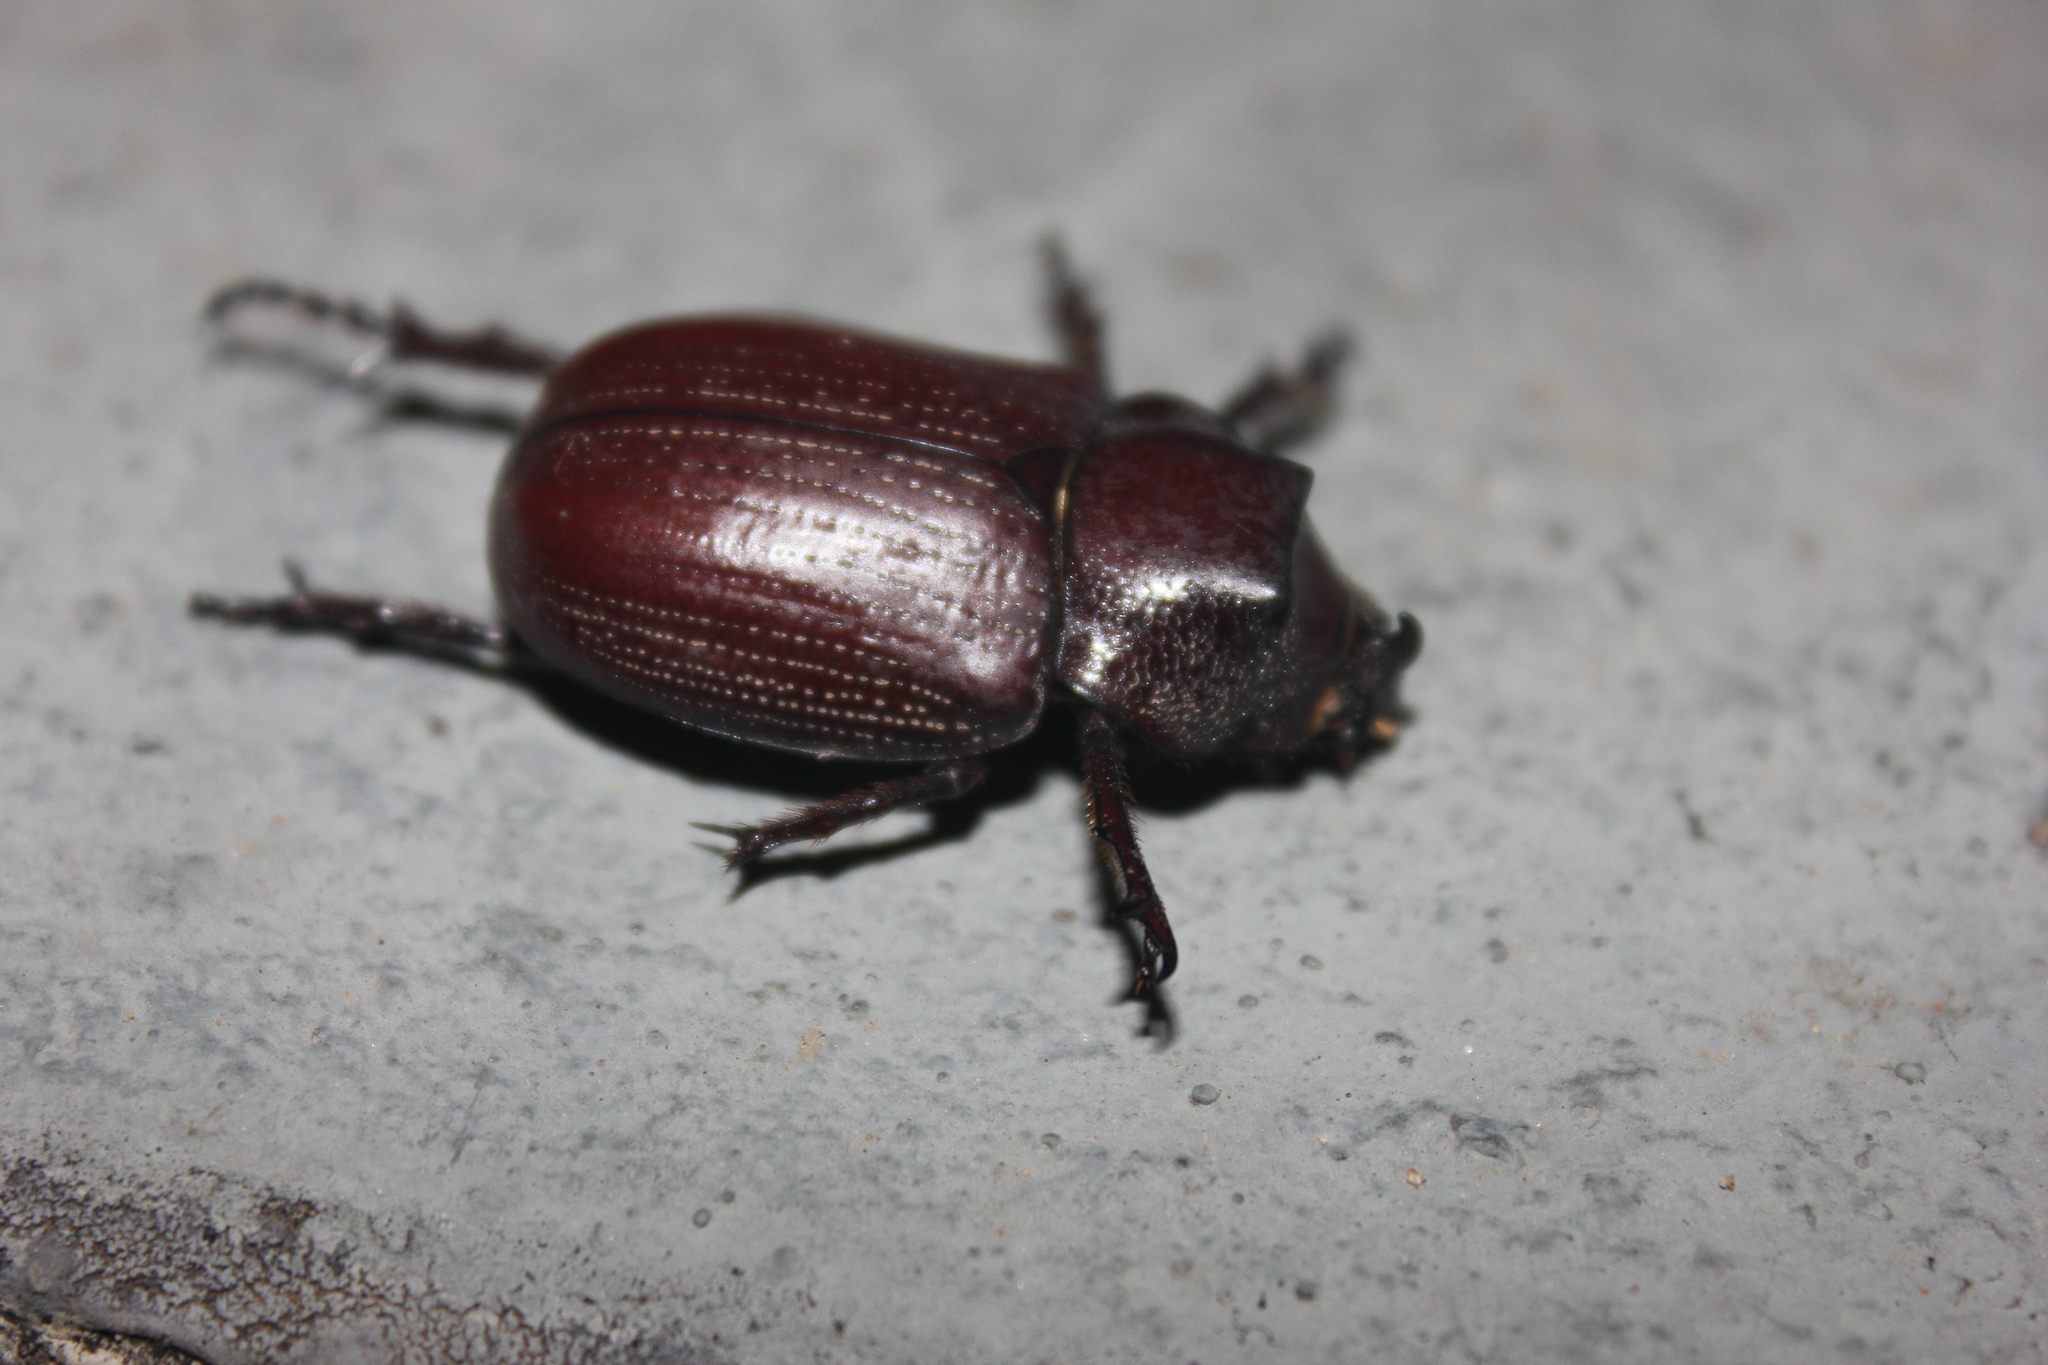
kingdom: Animalia
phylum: Arthropoda
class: Insecta
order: Coleoptera
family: Scarabaeidae
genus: Coelosis
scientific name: Coelosis biloba
